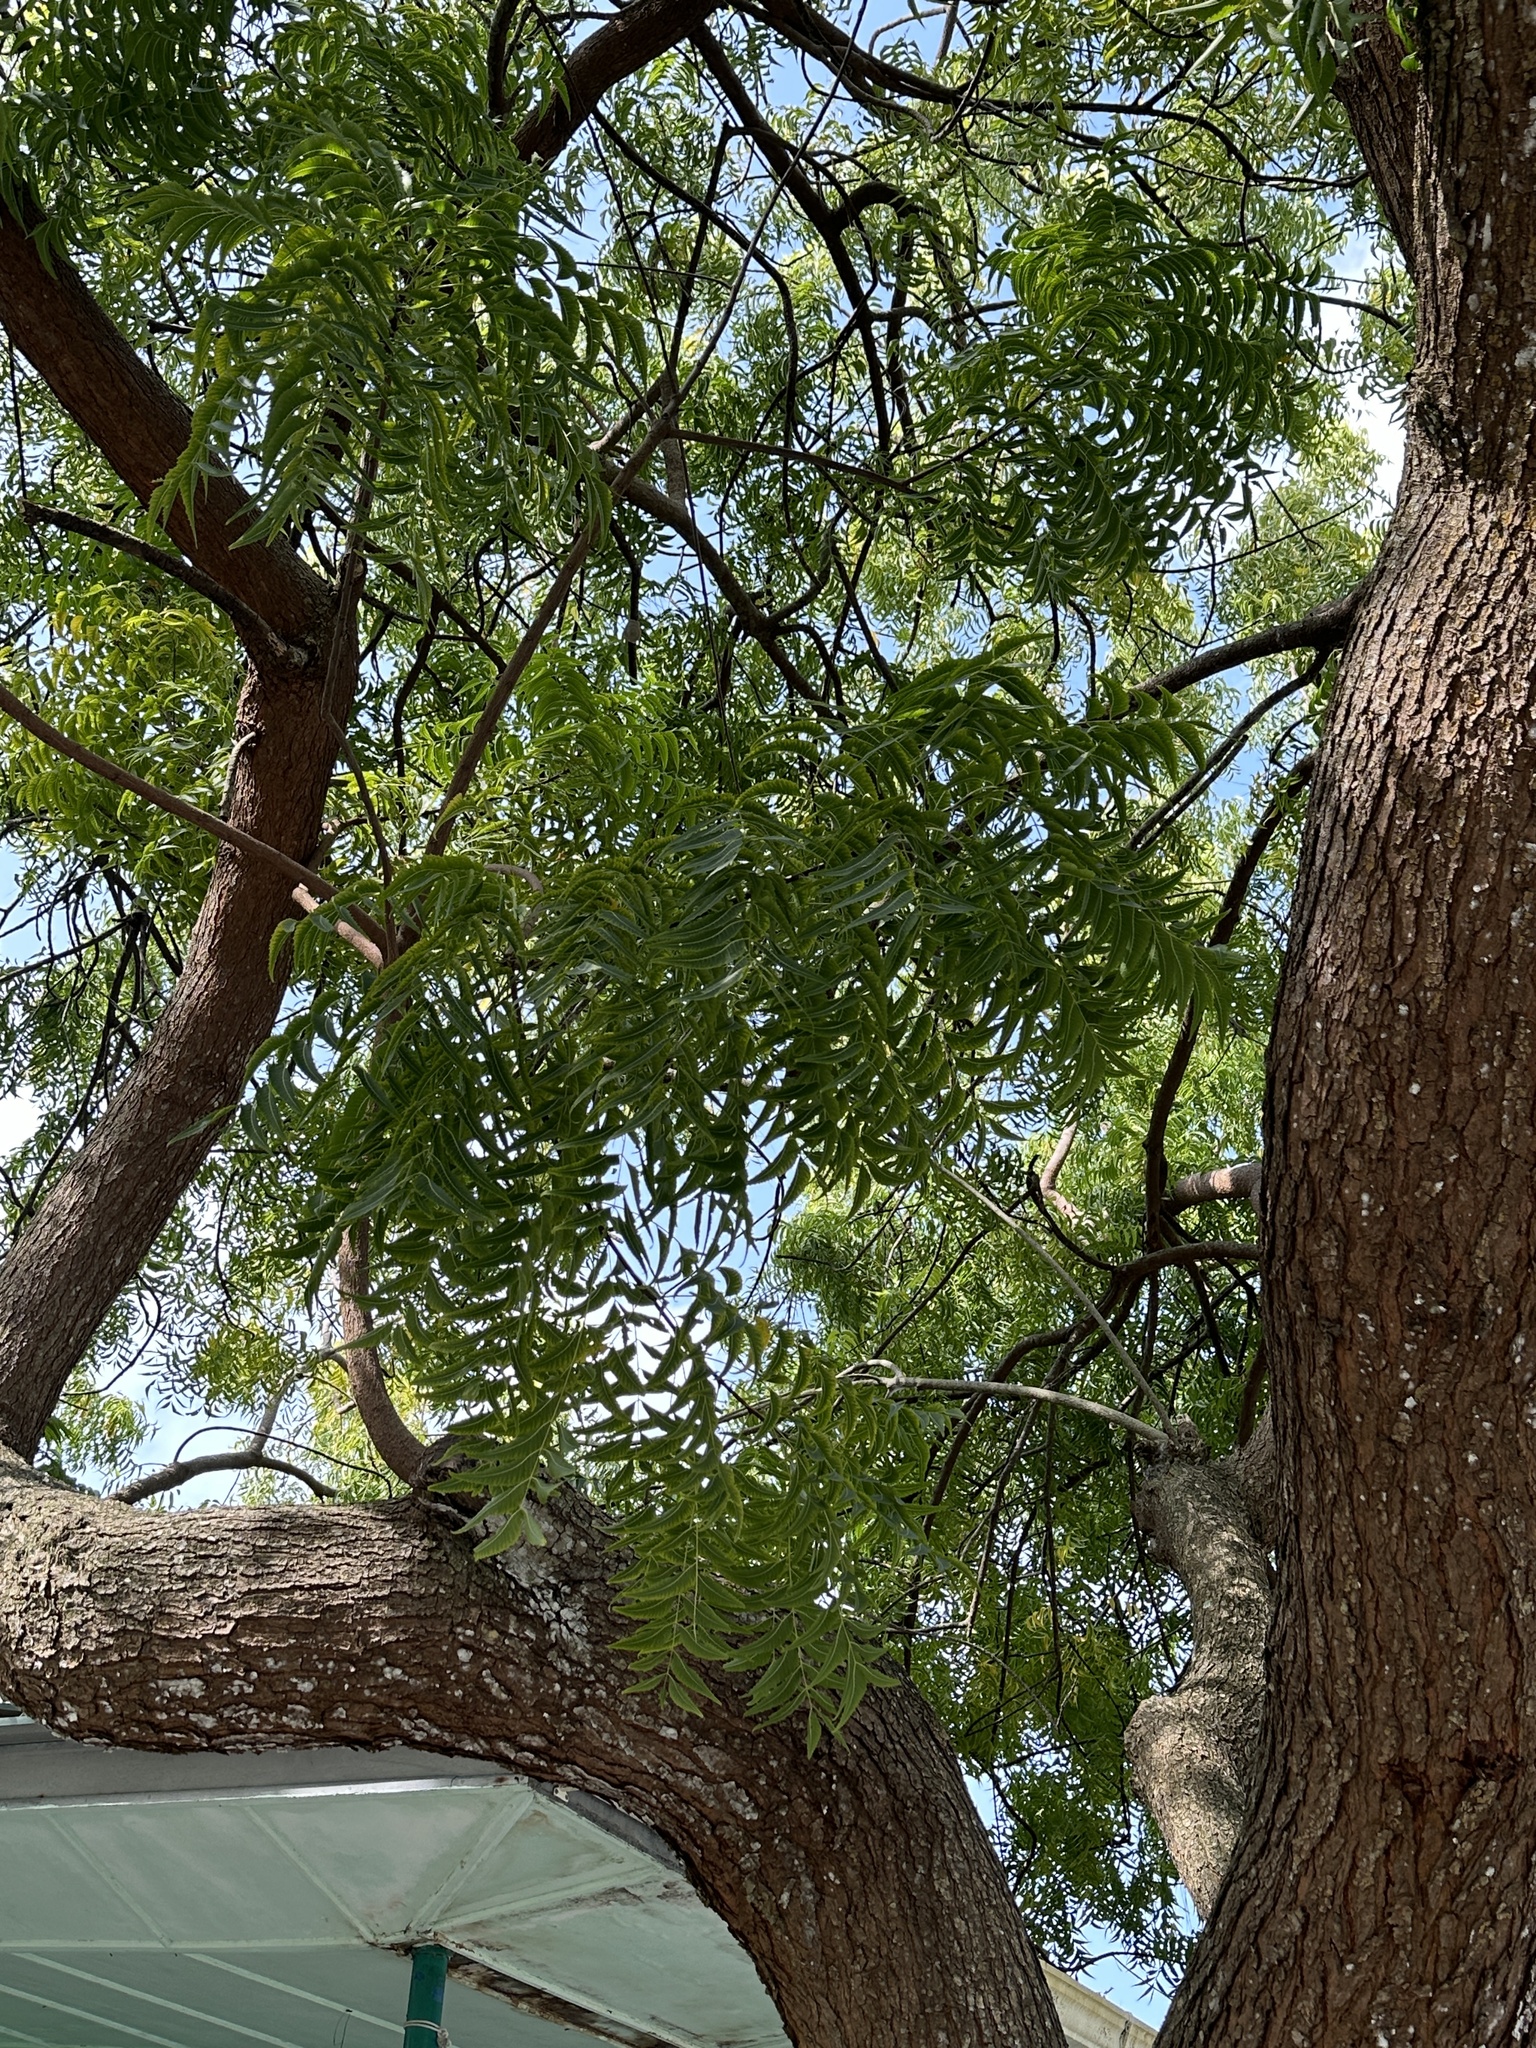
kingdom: Plantae
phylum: Tracheophyta
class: Magnoliopsida
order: Sapindales
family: Meliaceae
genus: Azadirachta
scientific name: Azadirachta indica
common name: Neem
